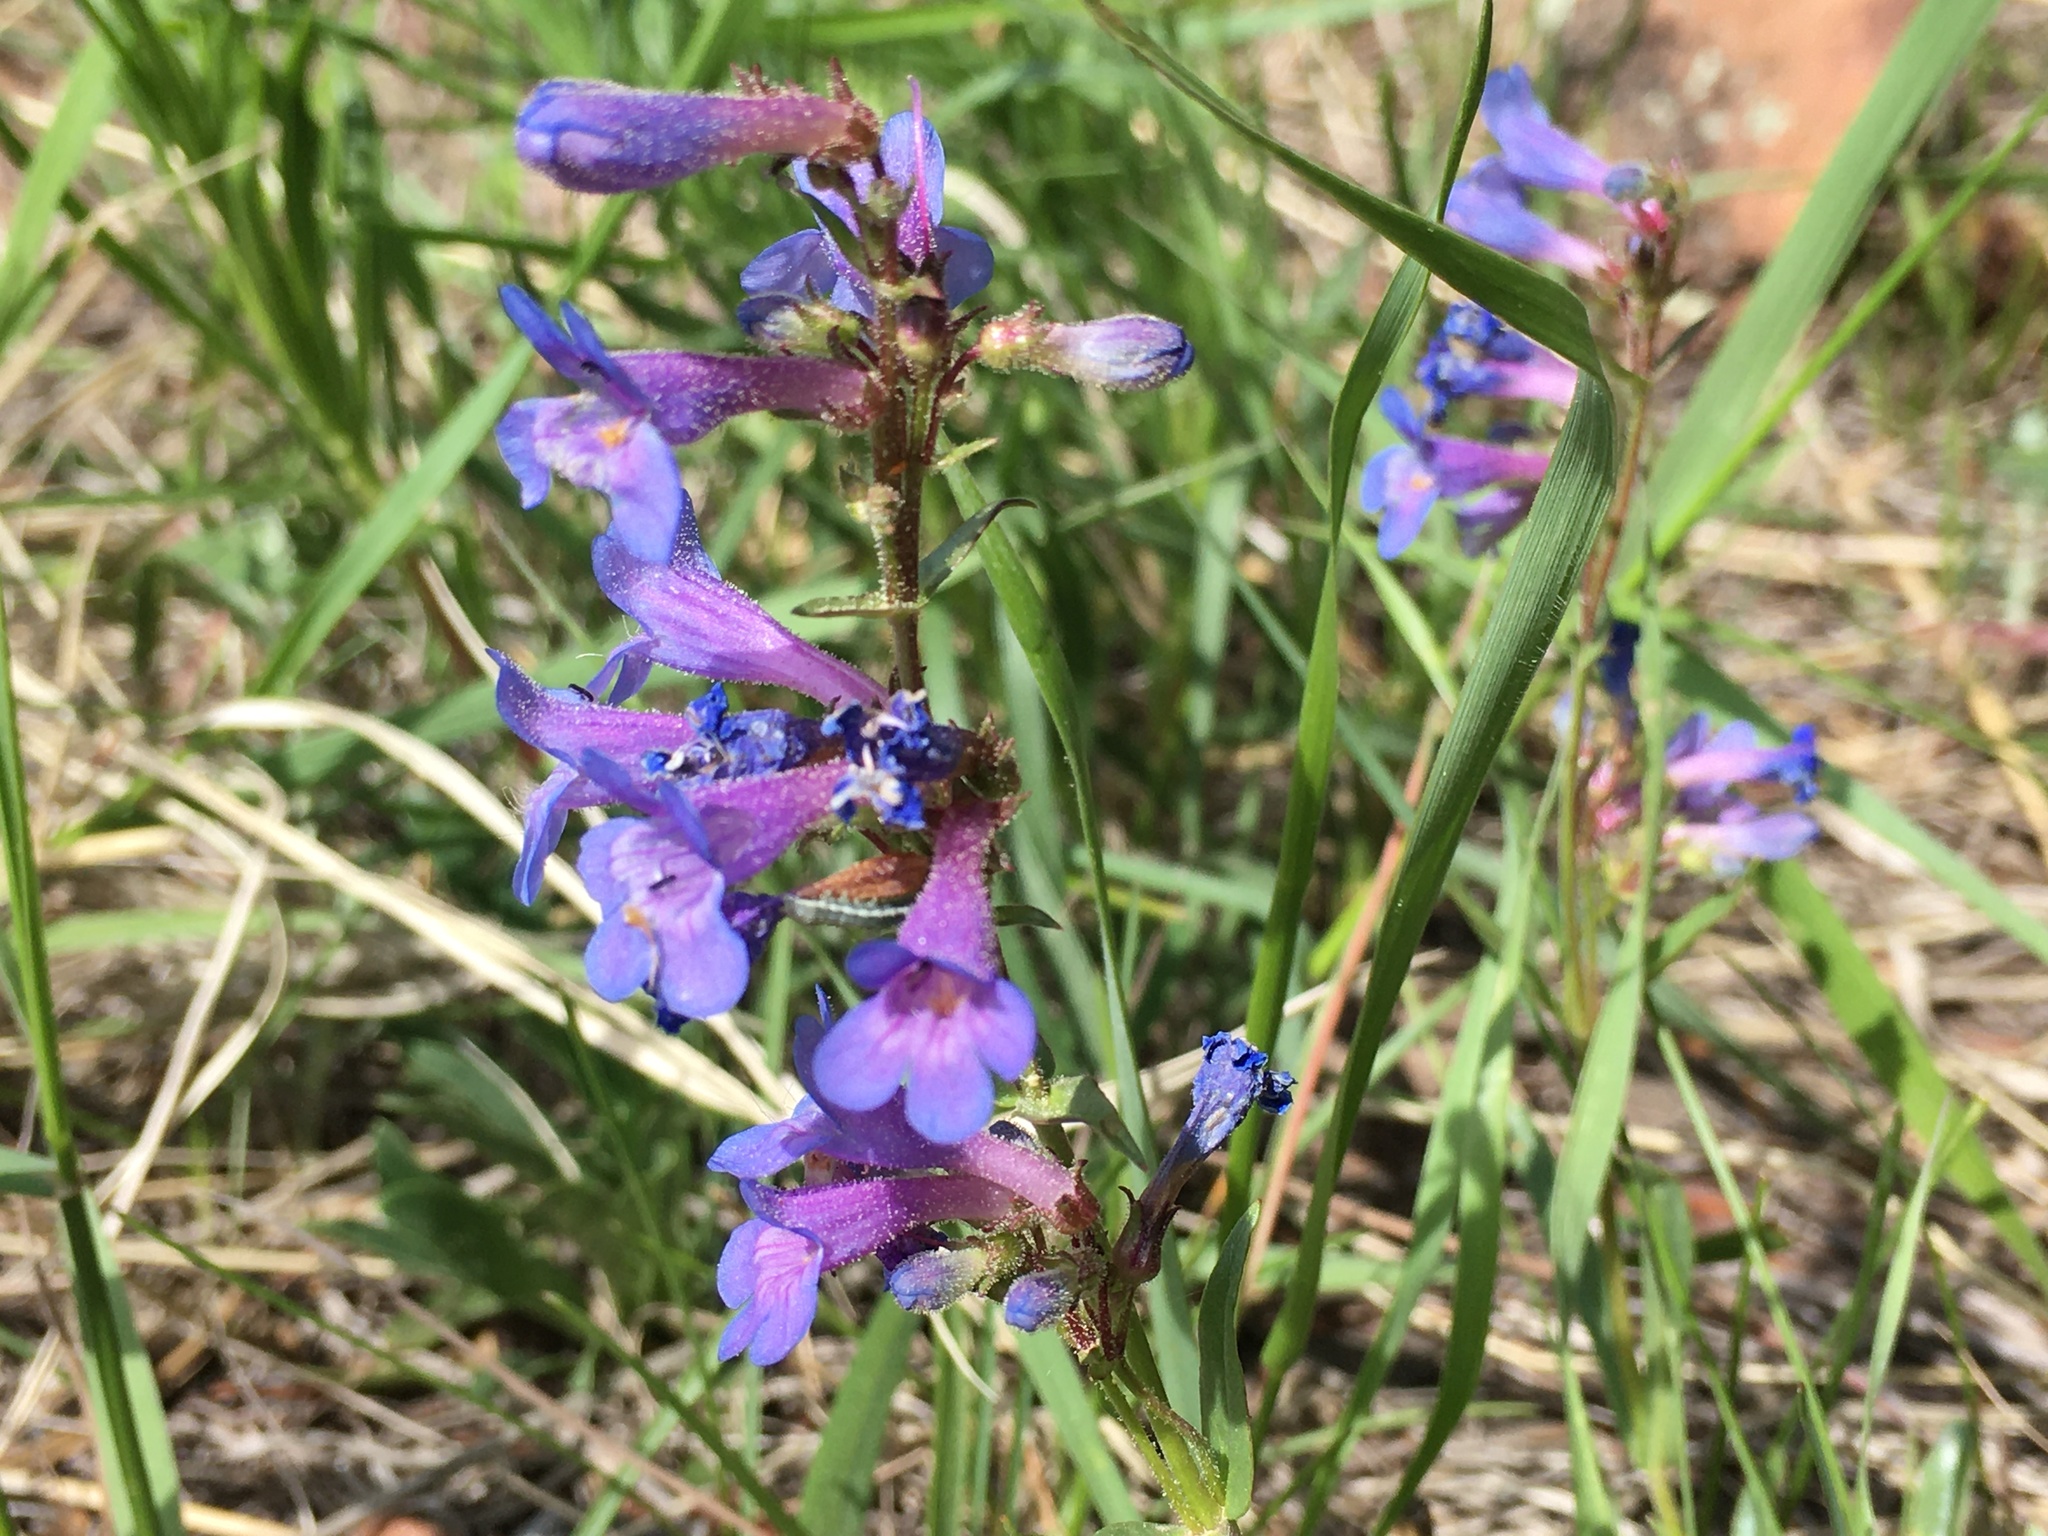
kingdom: Plantae
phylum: Tracheophyta
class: Magnoliopsida
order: Lamiales
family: Plantaginaceae
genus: Penstemon
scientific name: Penstemon virens
